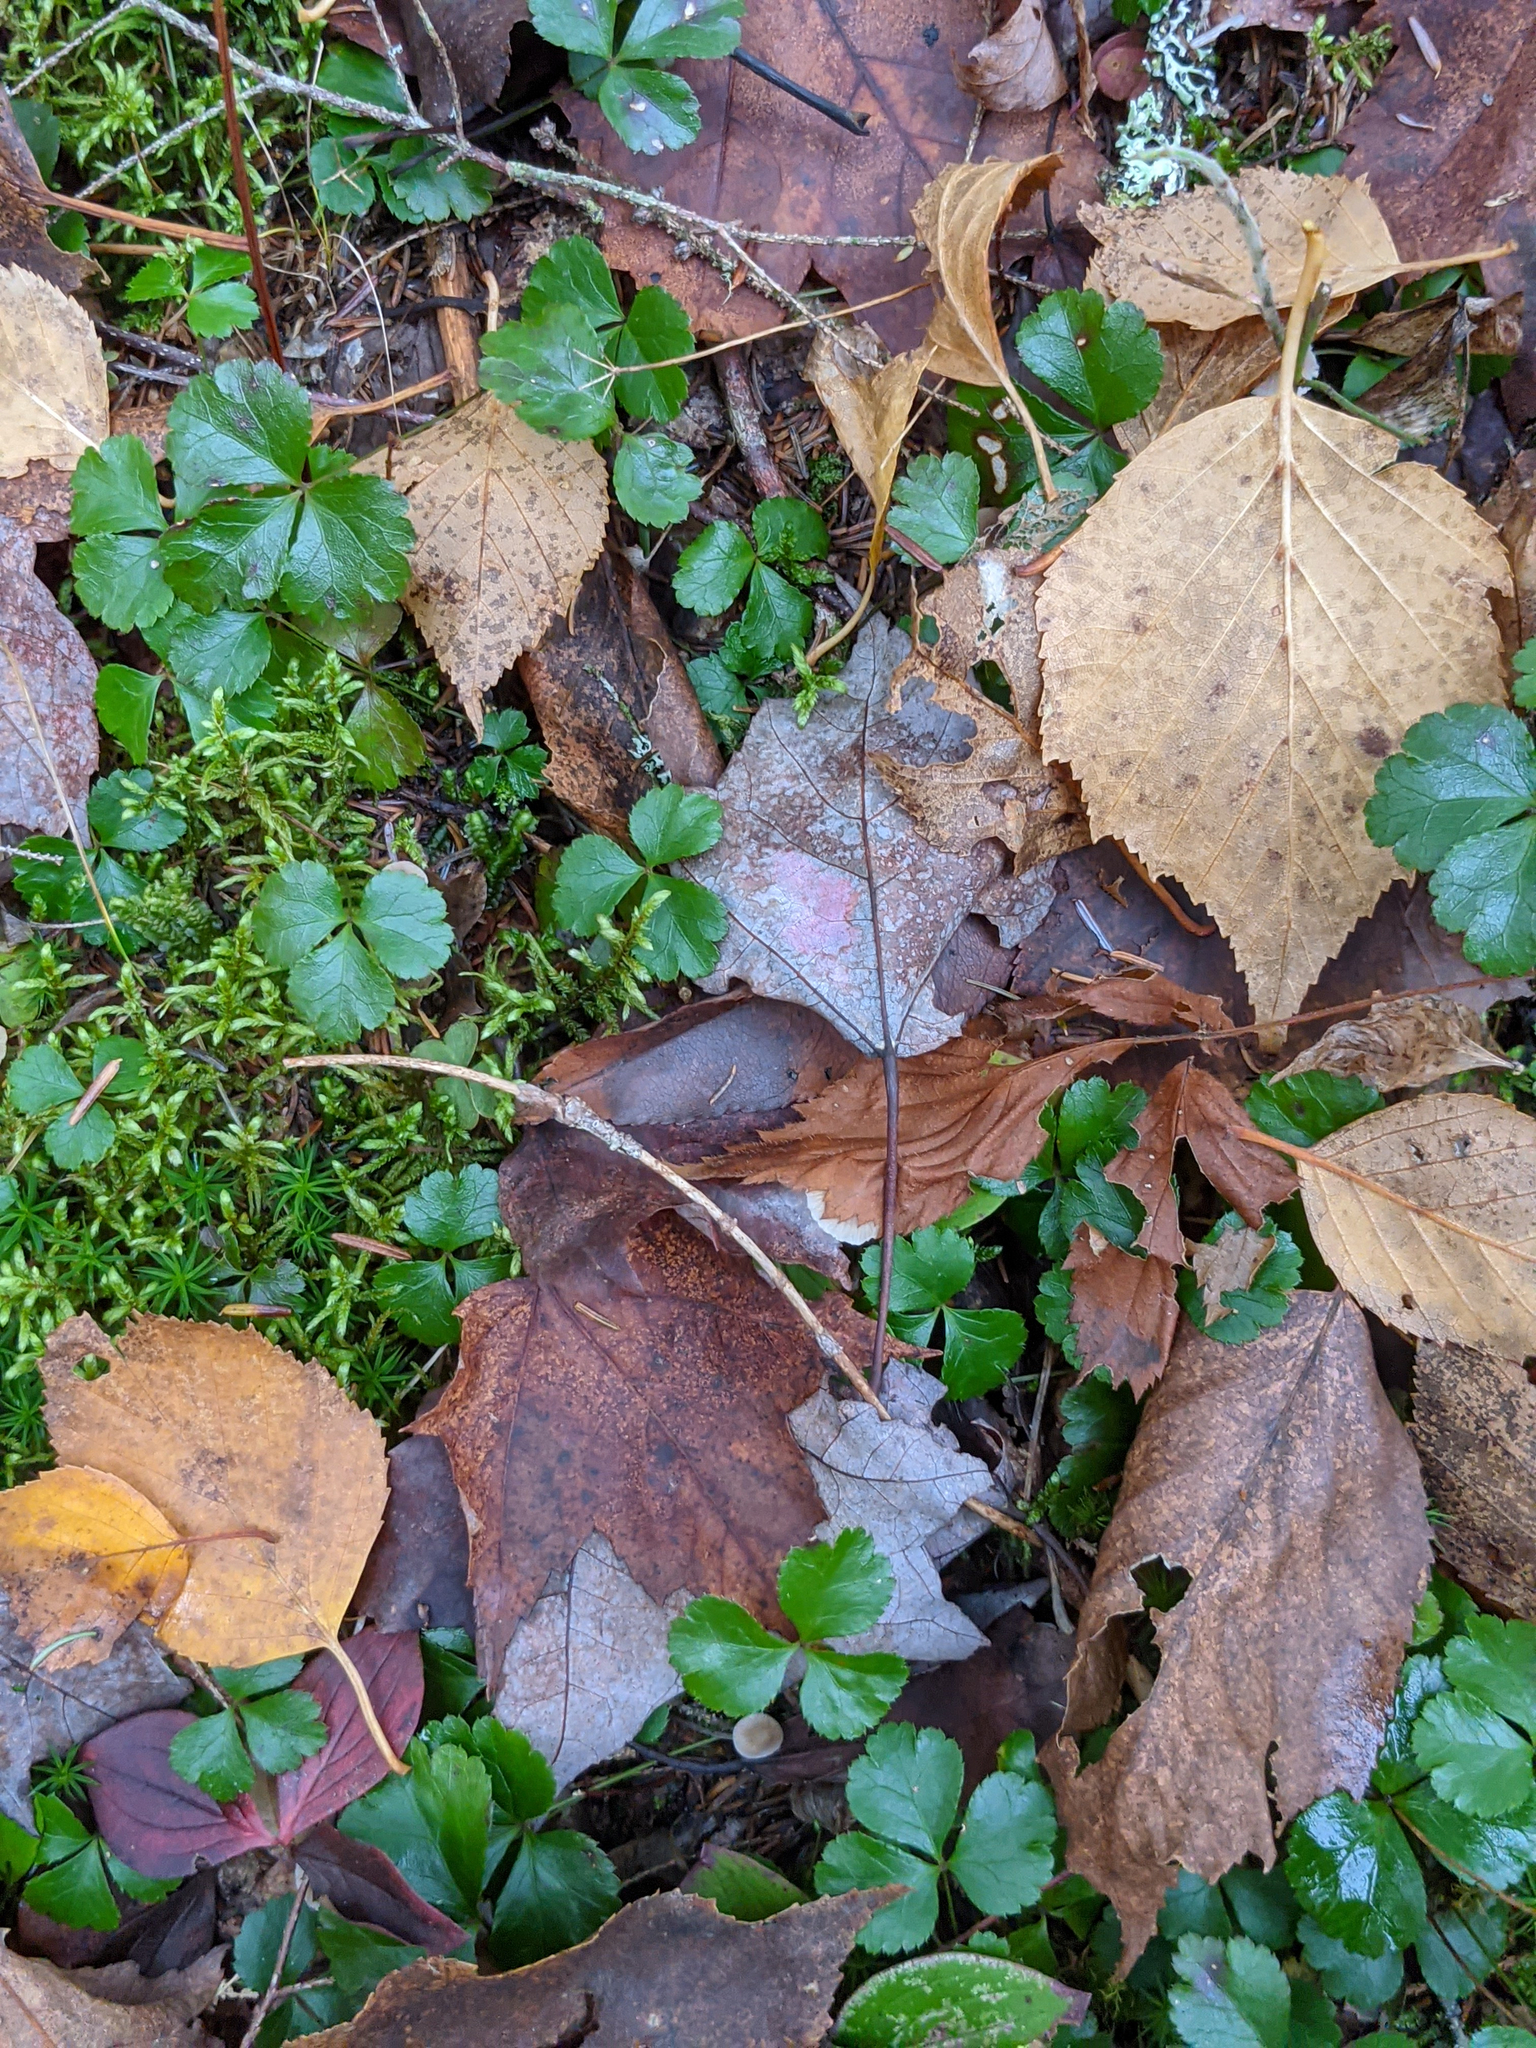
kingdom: Plantae
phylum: Tracheophyta
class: Magnoliopsida
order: Ranunculales
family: Ranunculaceae
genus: Coptis
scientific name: Coptis trifolia
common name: Canker-root
